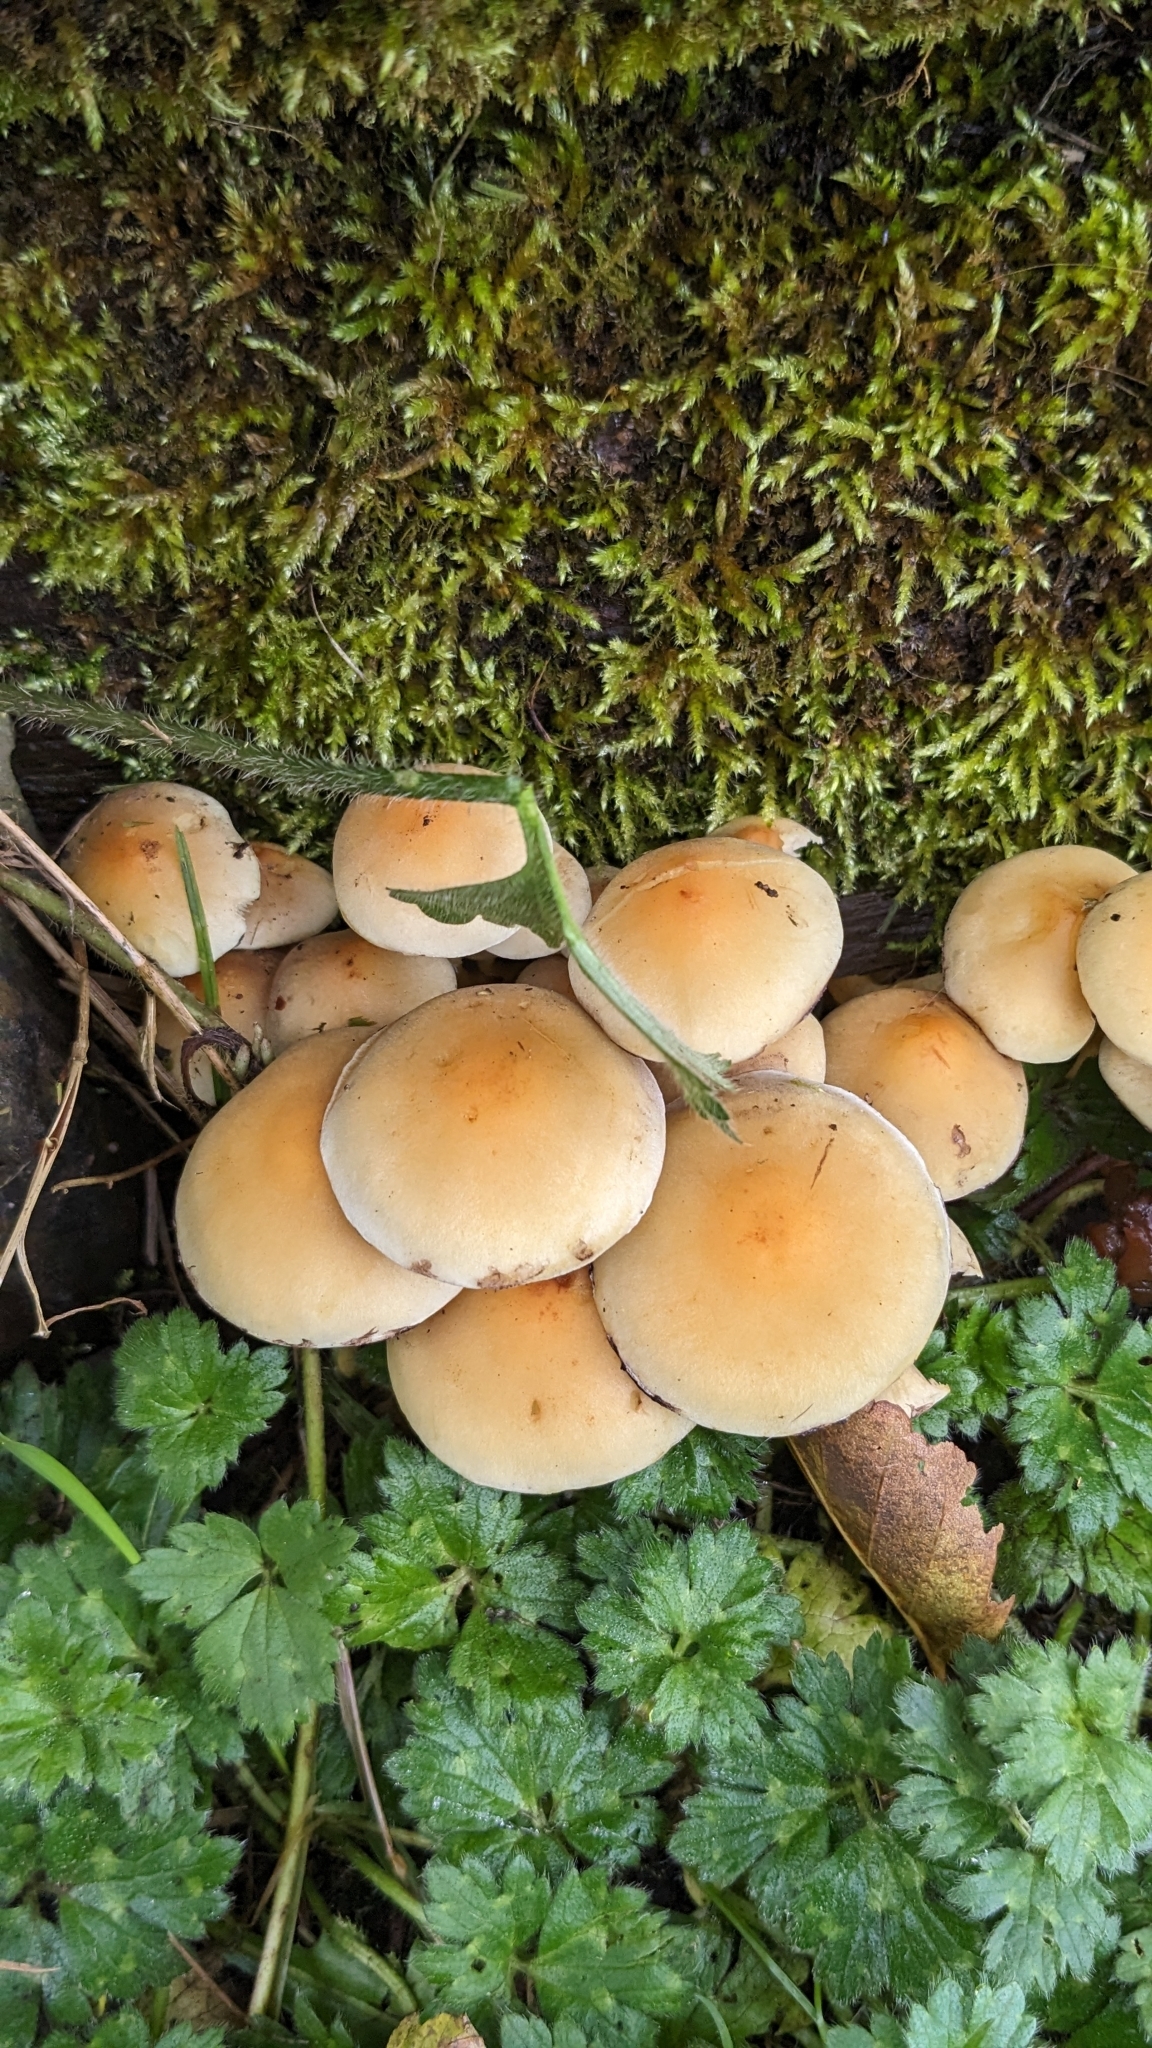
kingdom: Fungi
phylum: Basidiomycota
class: Agaricomycetes
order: Agaricales
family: Strophariaceae
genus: Hypholoma
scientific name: Hypholoma fasciculare
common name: Sulphur tuft
